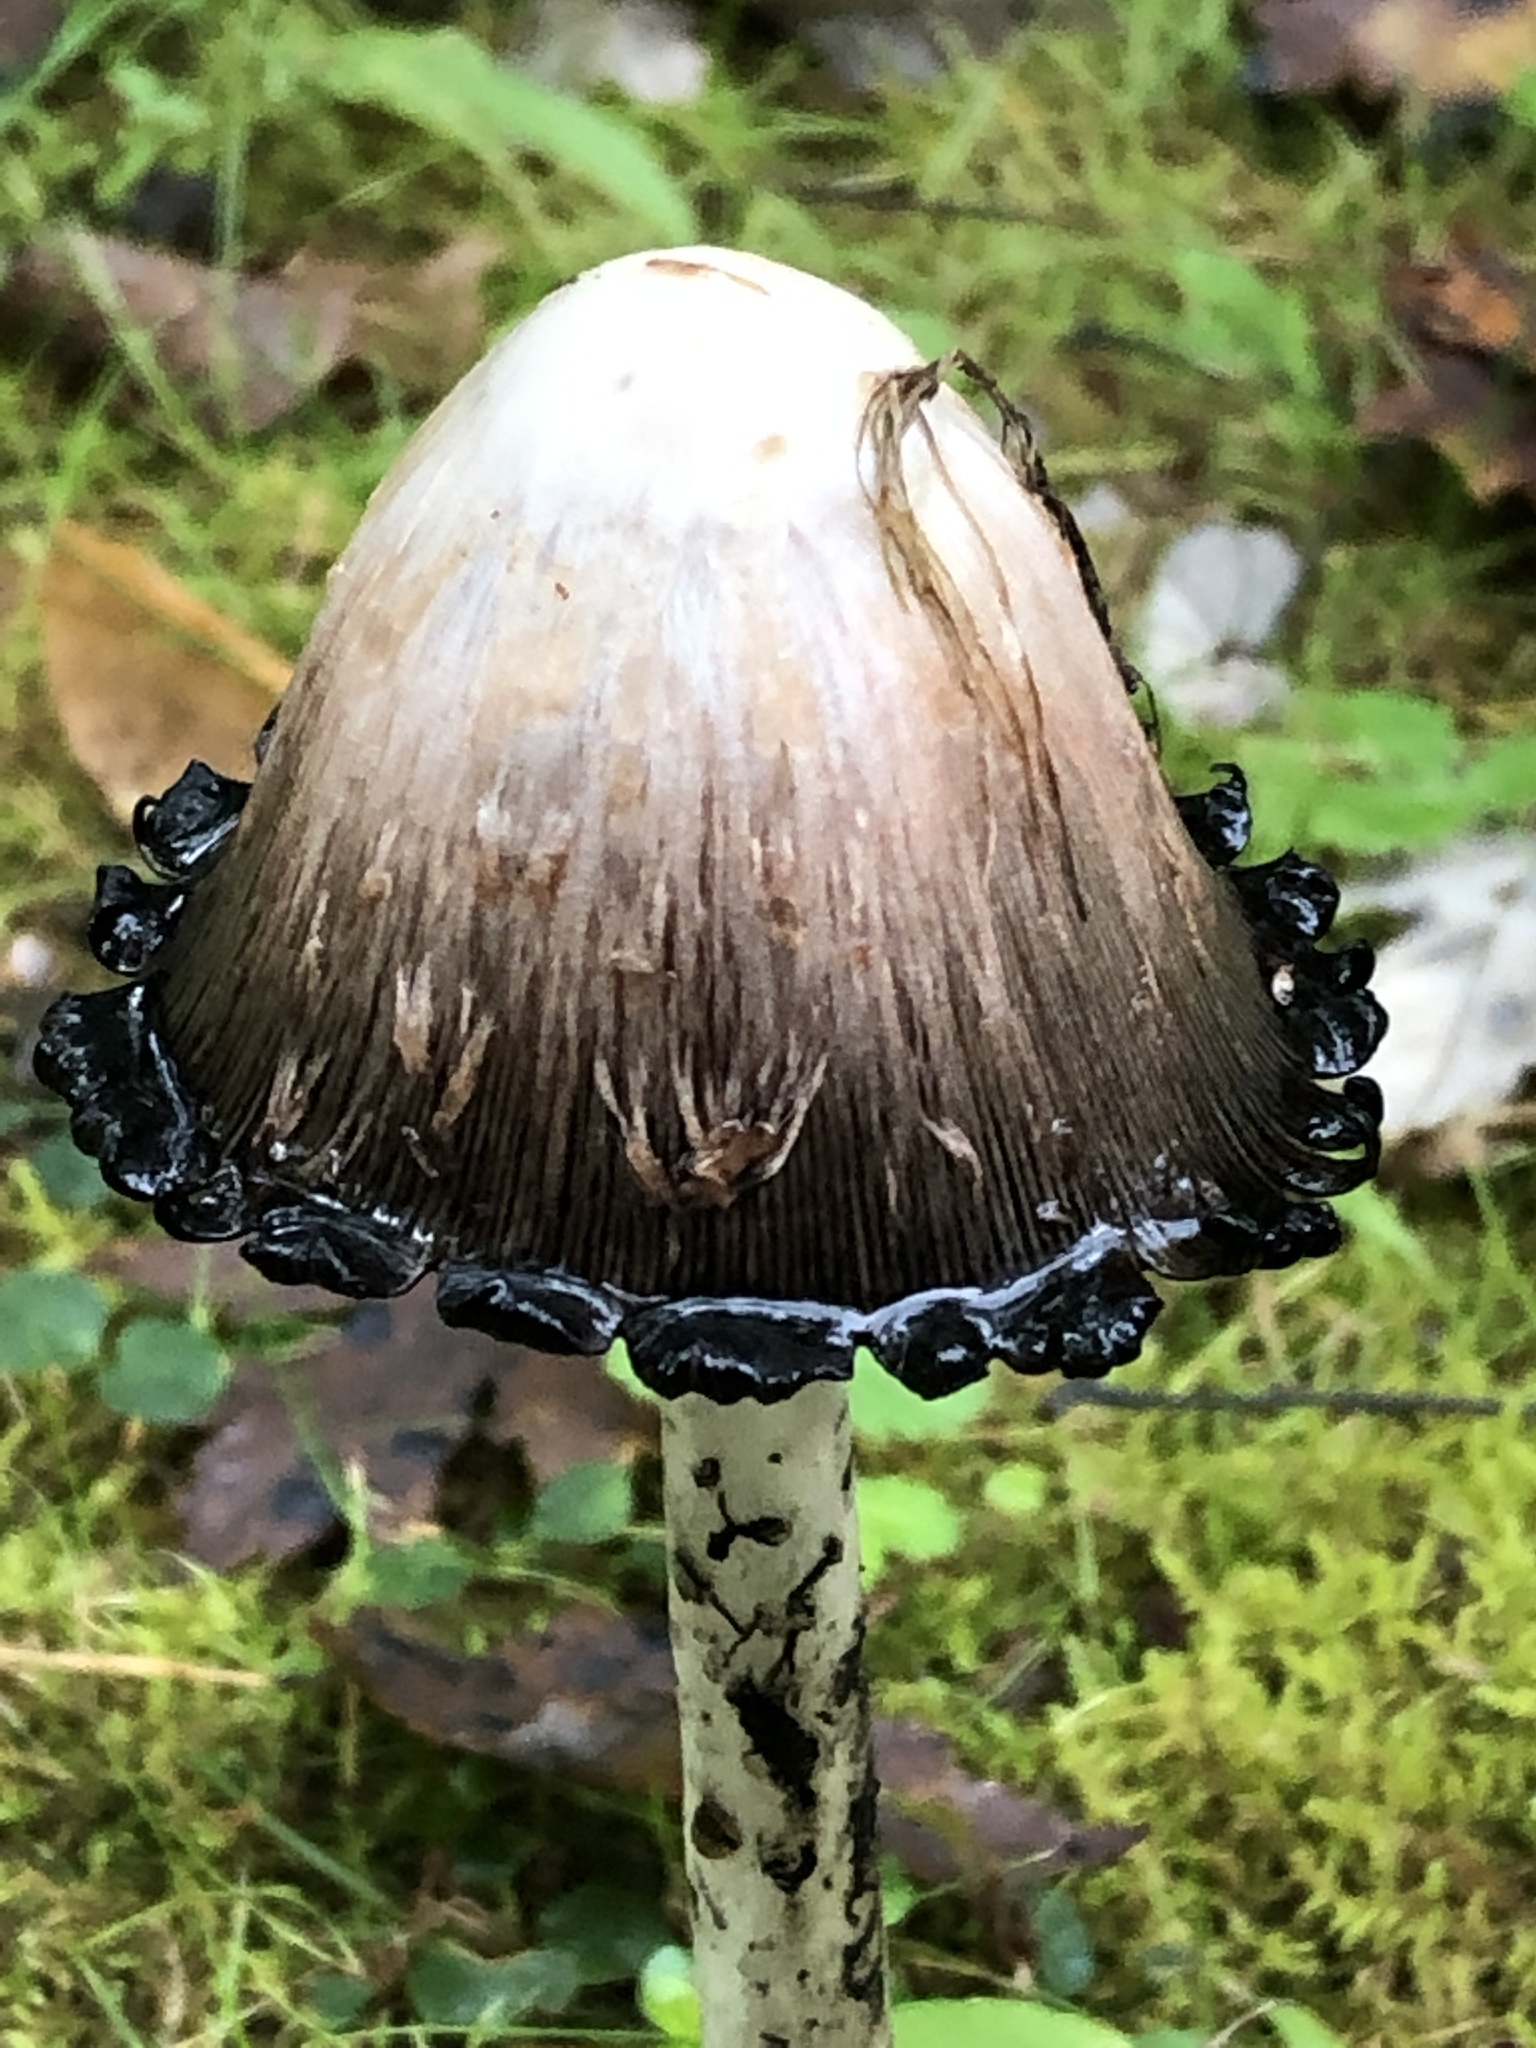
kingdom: Fungi
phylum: Basidiomycota
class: Agaricomycetes
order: Agaricales
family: Agaricaceae
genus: Coprinus
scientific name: Coprinus comatus
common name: Lawyer's wig
